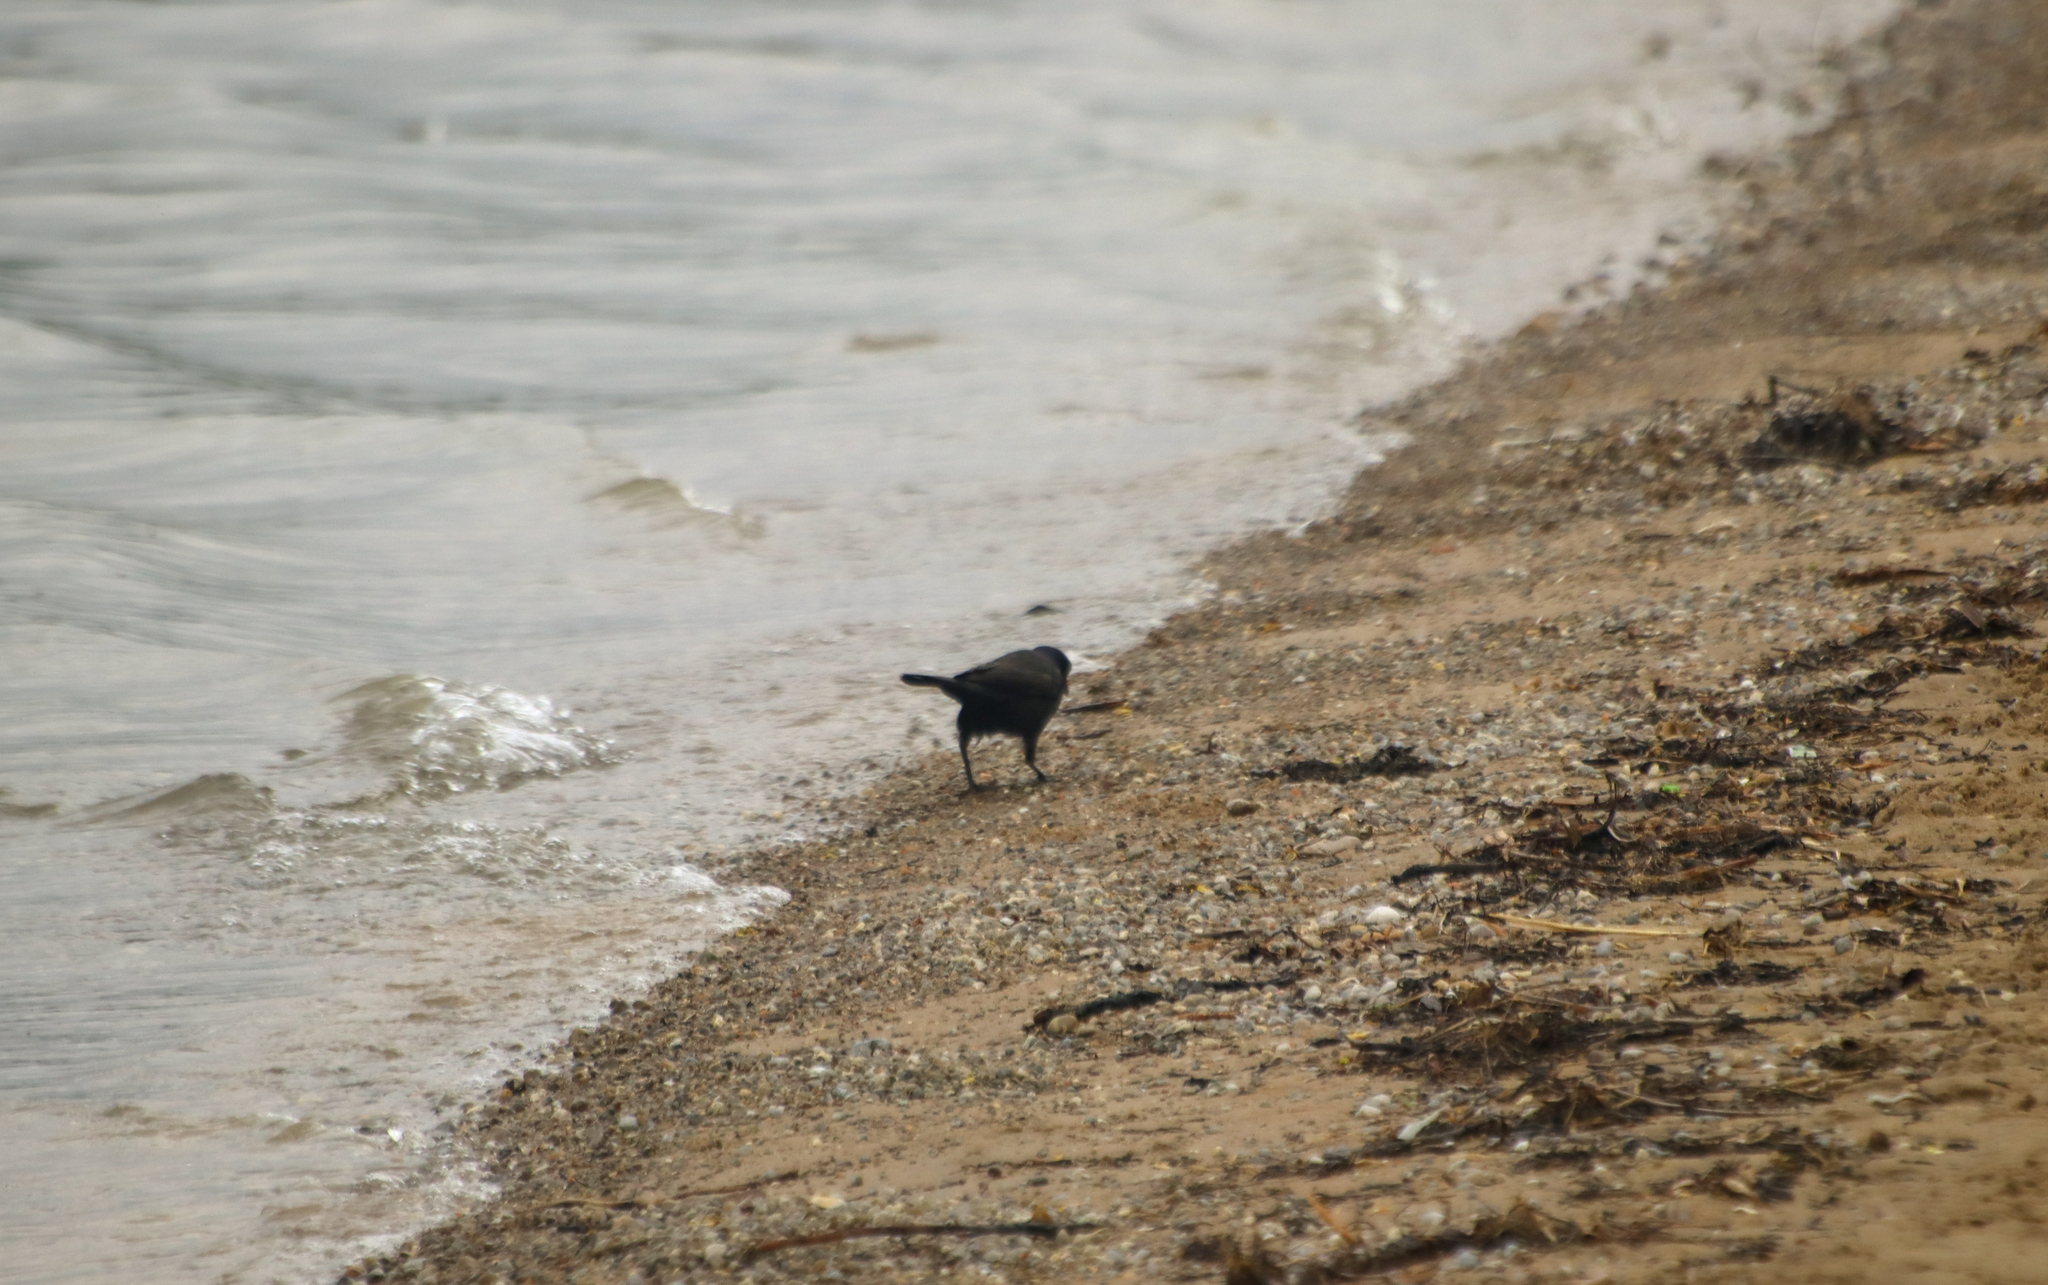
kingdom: Animalia
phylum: Chordata
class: Aves
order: Passeriformes
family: Icteridae
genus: Quiscalus
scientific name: Quiscalus quiscula
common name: Common grackle
